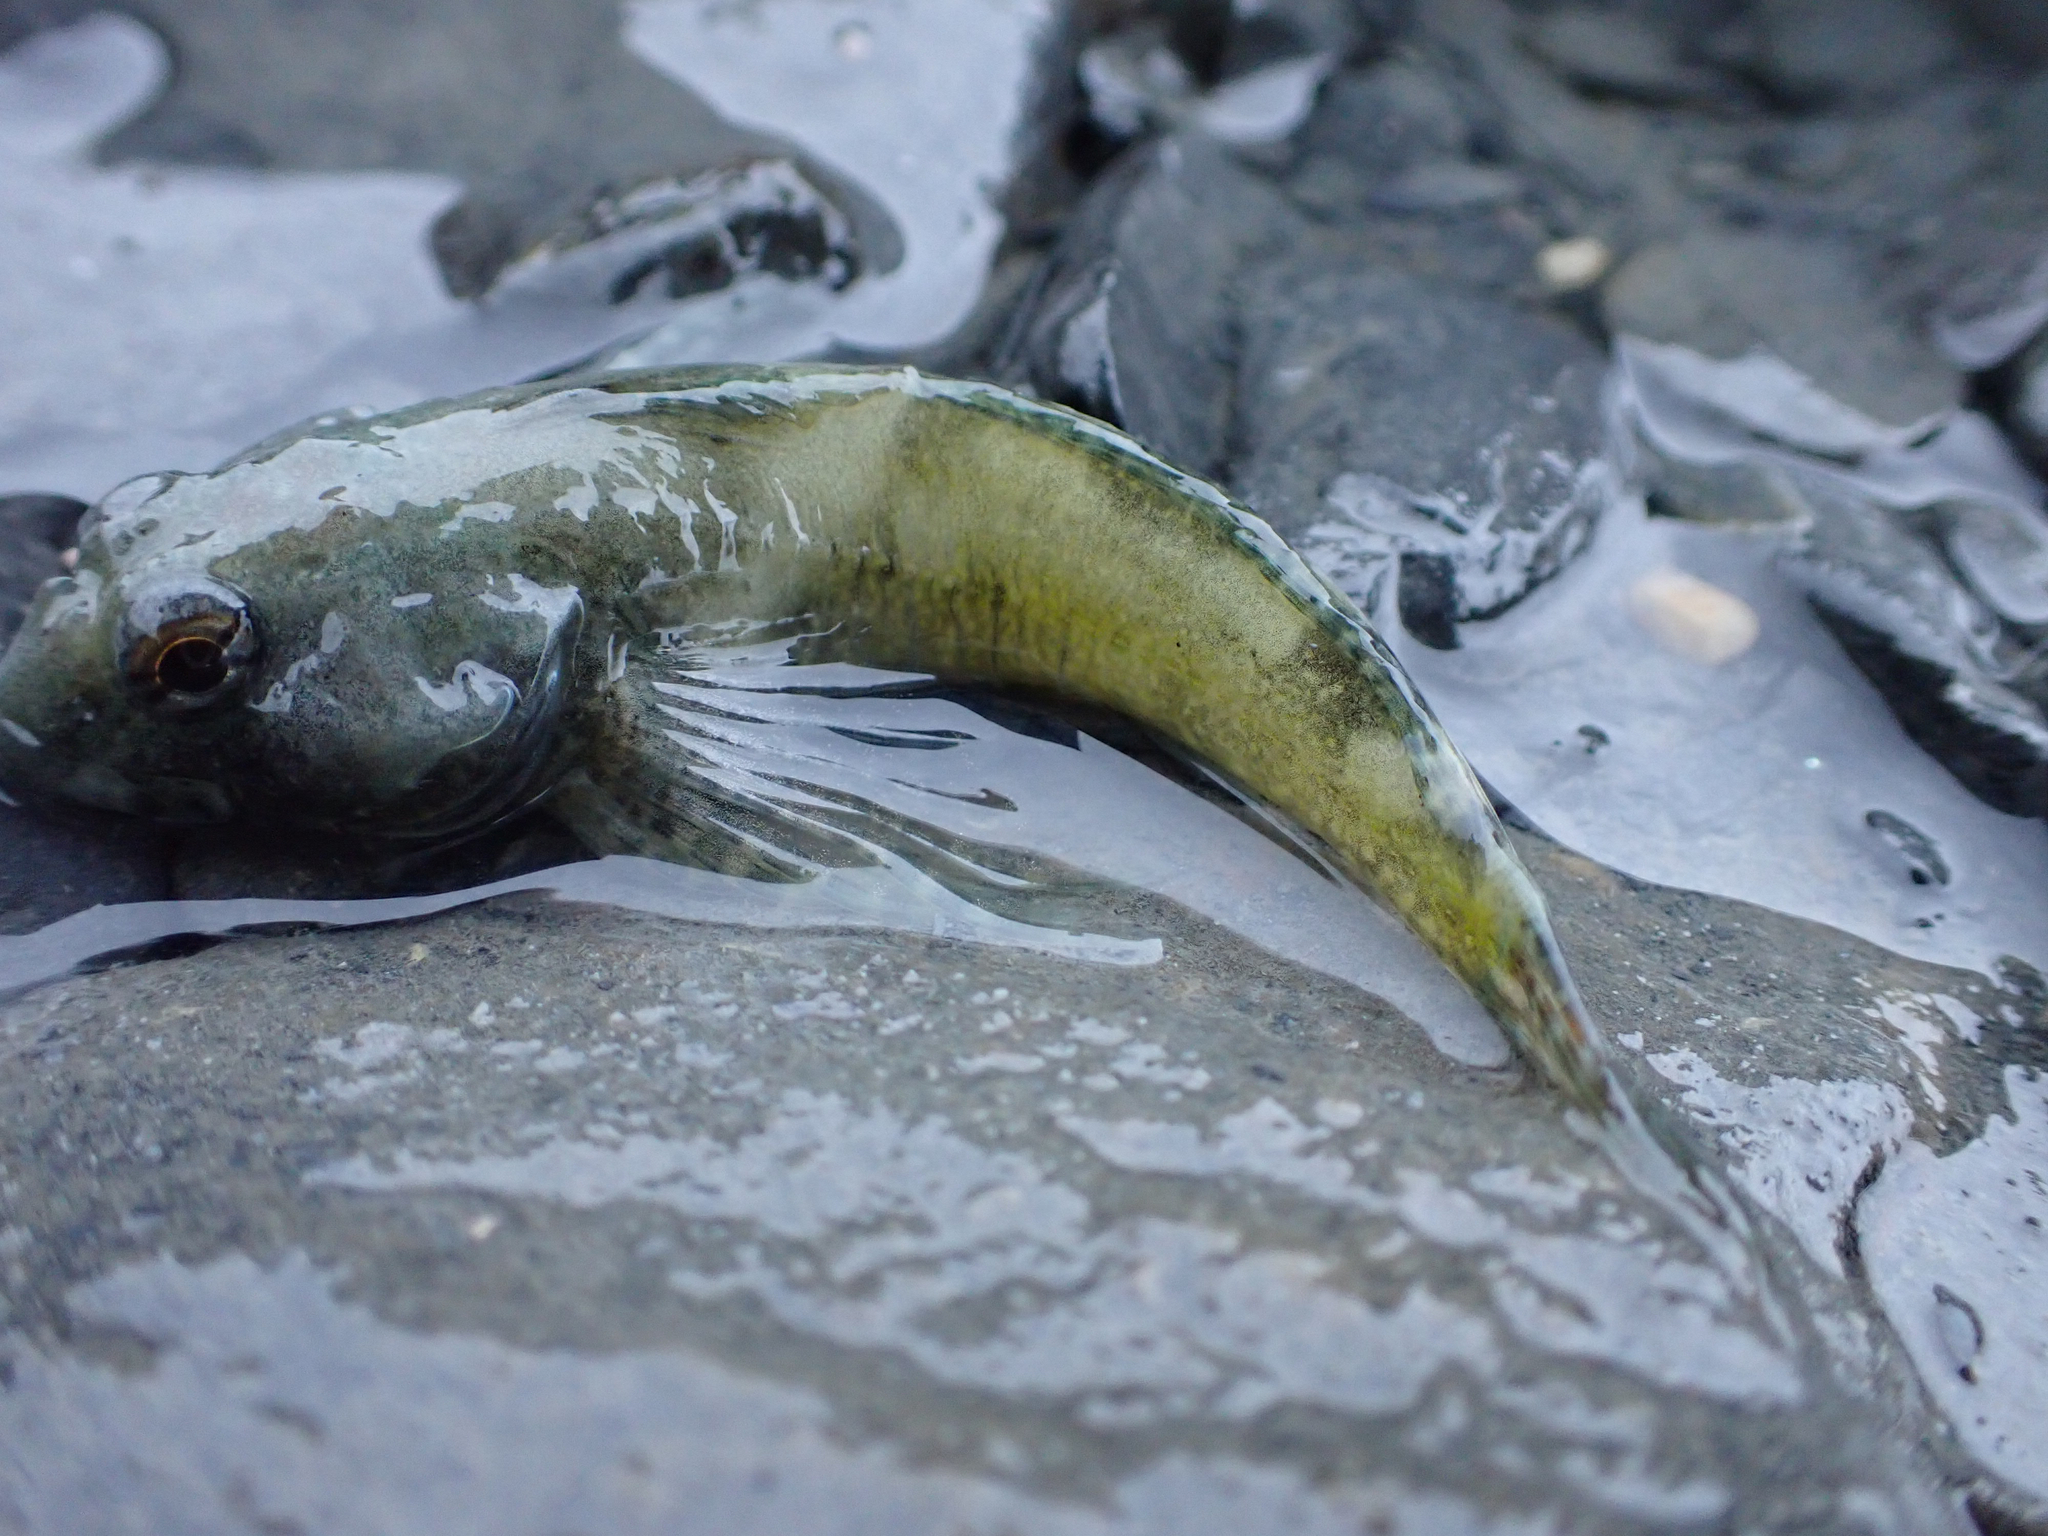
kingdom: Animalia
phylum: Chordata
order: Scorpaeniformes
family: Cottidae
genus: Oligocottus
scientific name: Oligocottus maculosus
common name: Tidepool sculpin
